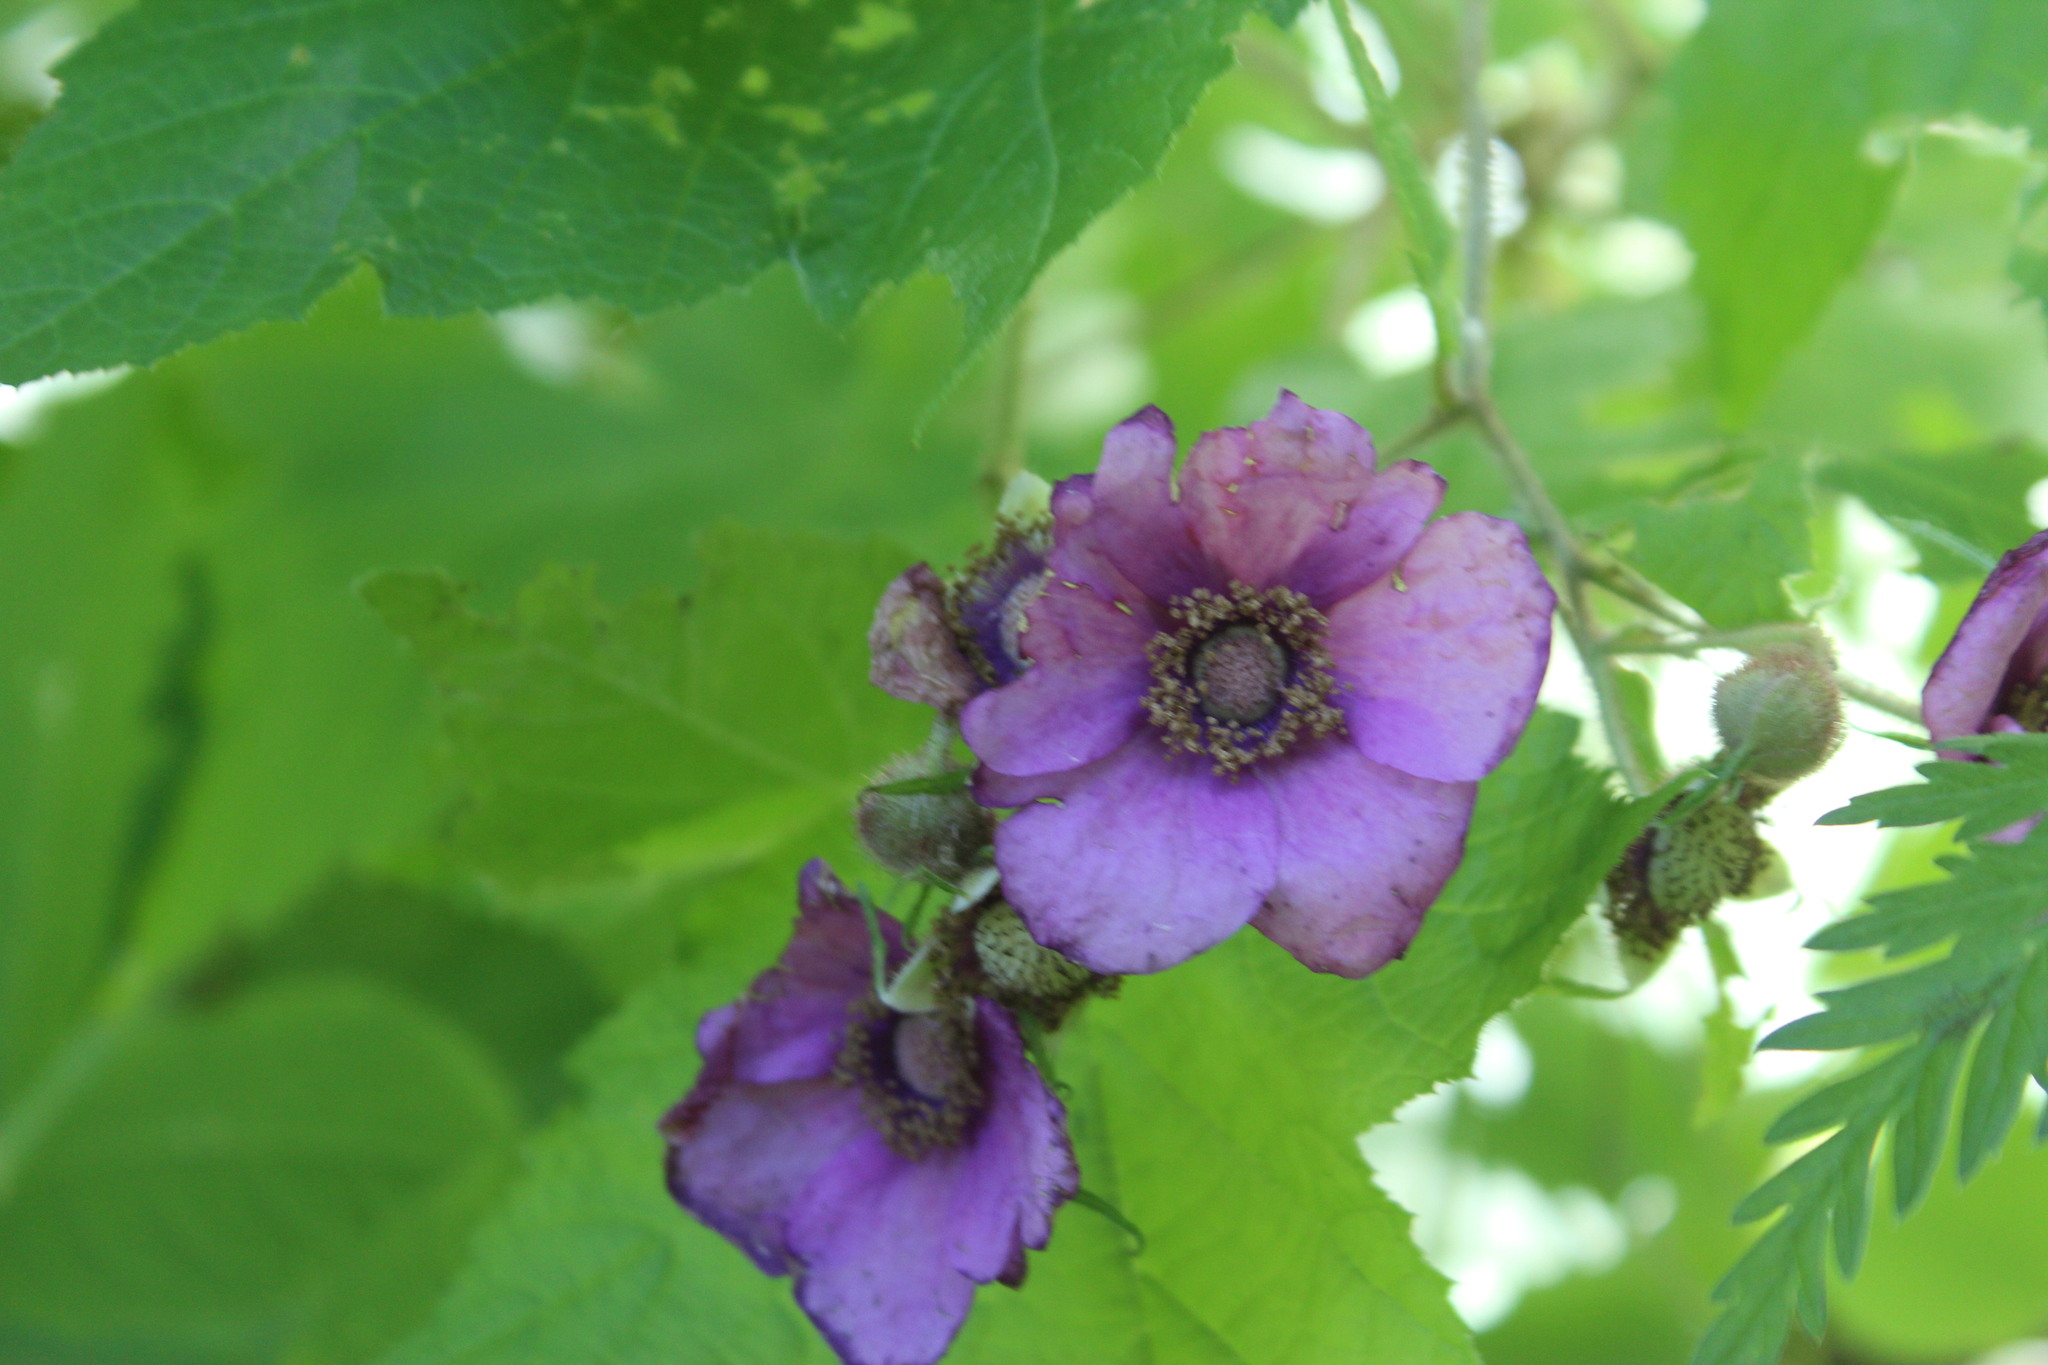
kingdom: Plantae
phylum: Tracheophyta
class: Magnoliopsida
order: Rosales
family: Rosaceae
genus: Rubus
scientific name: Rubus odoratus
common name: Purple-flowered raspberry
